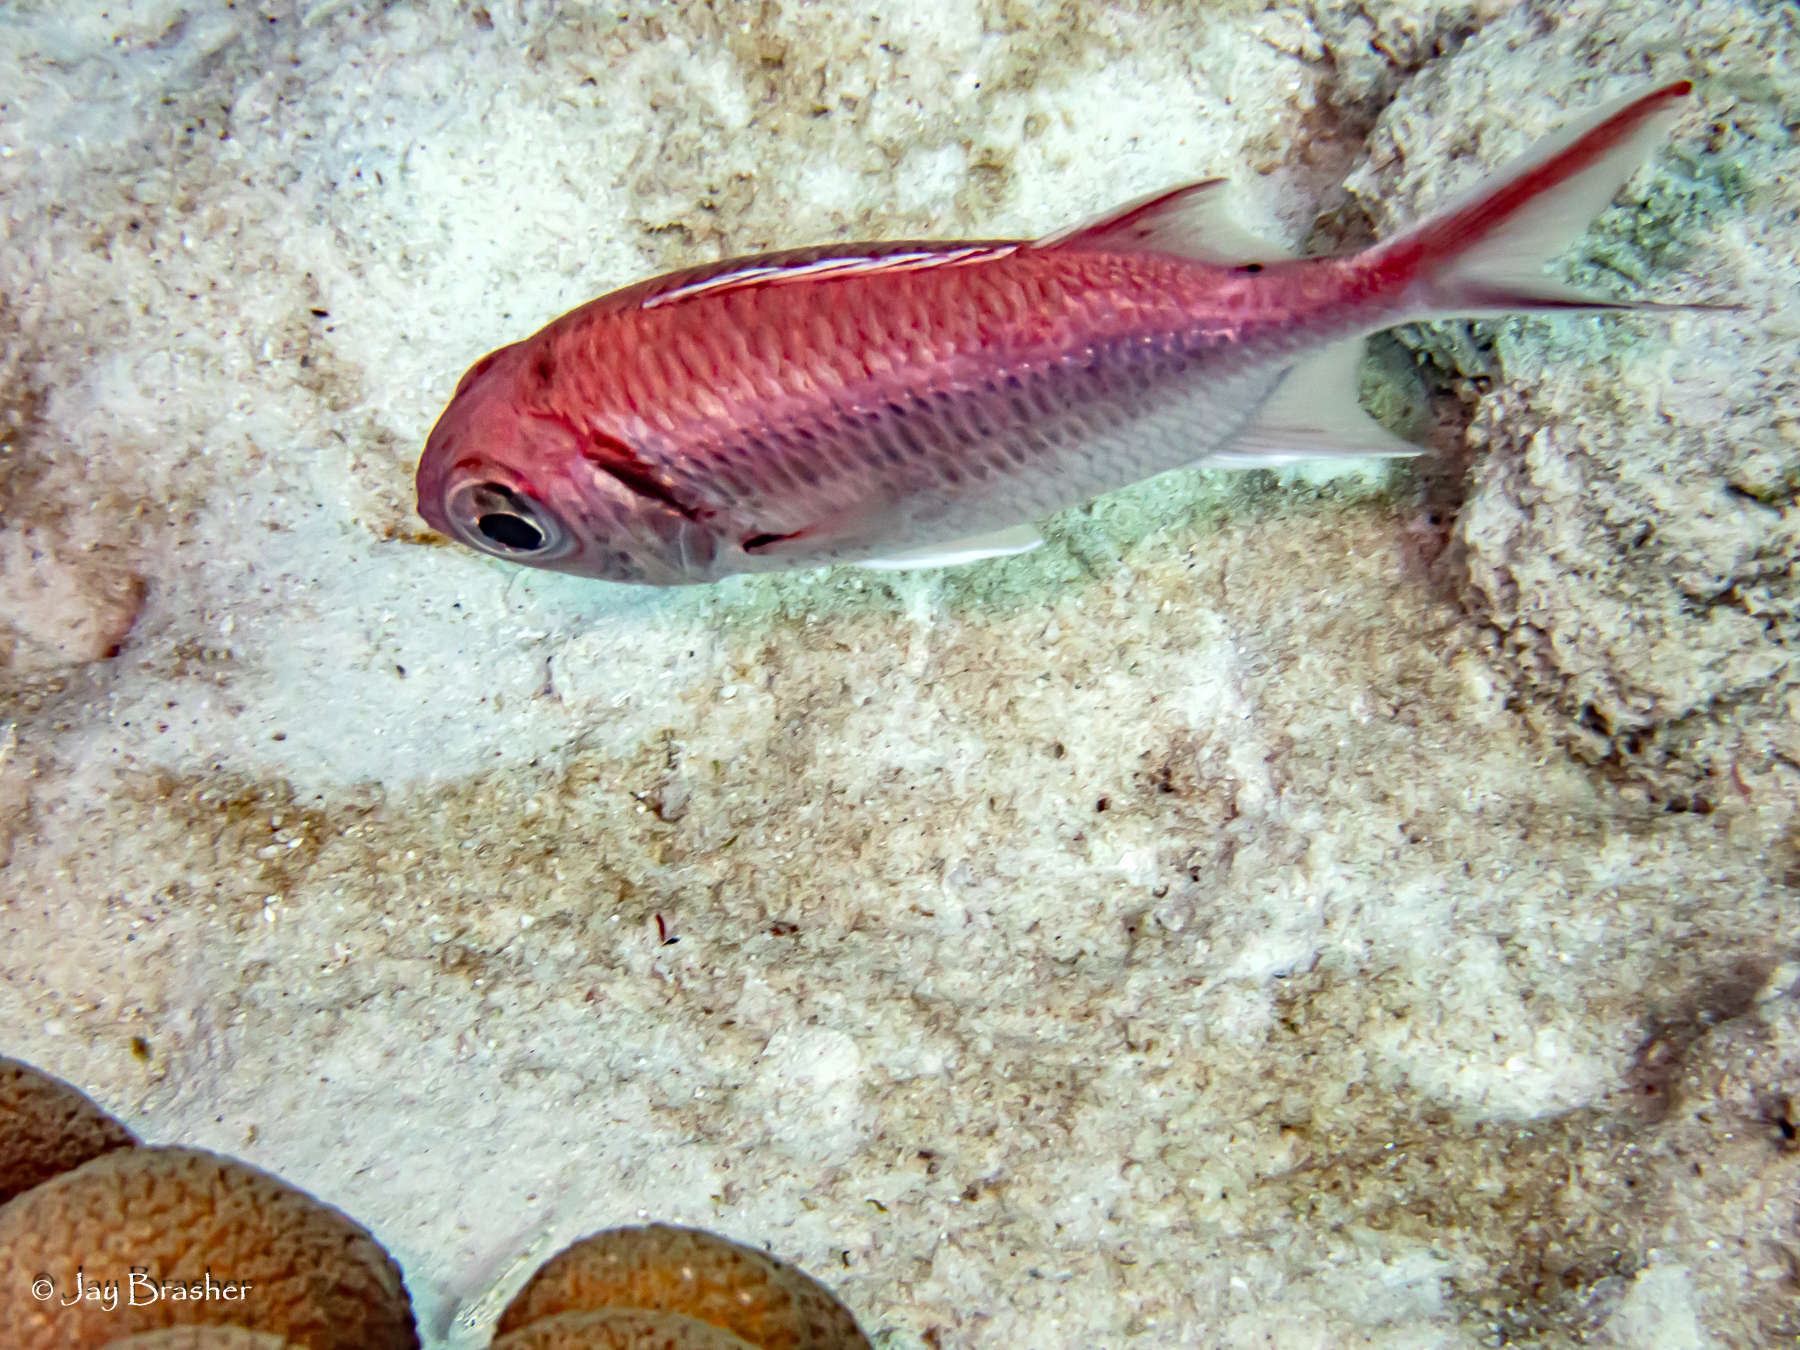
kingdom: Animalia
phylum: Chordata
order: Beryciformes
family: Holocentridae
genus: Myripristis
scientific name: Myripristis jacobus
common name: Blackbar soldierfish
